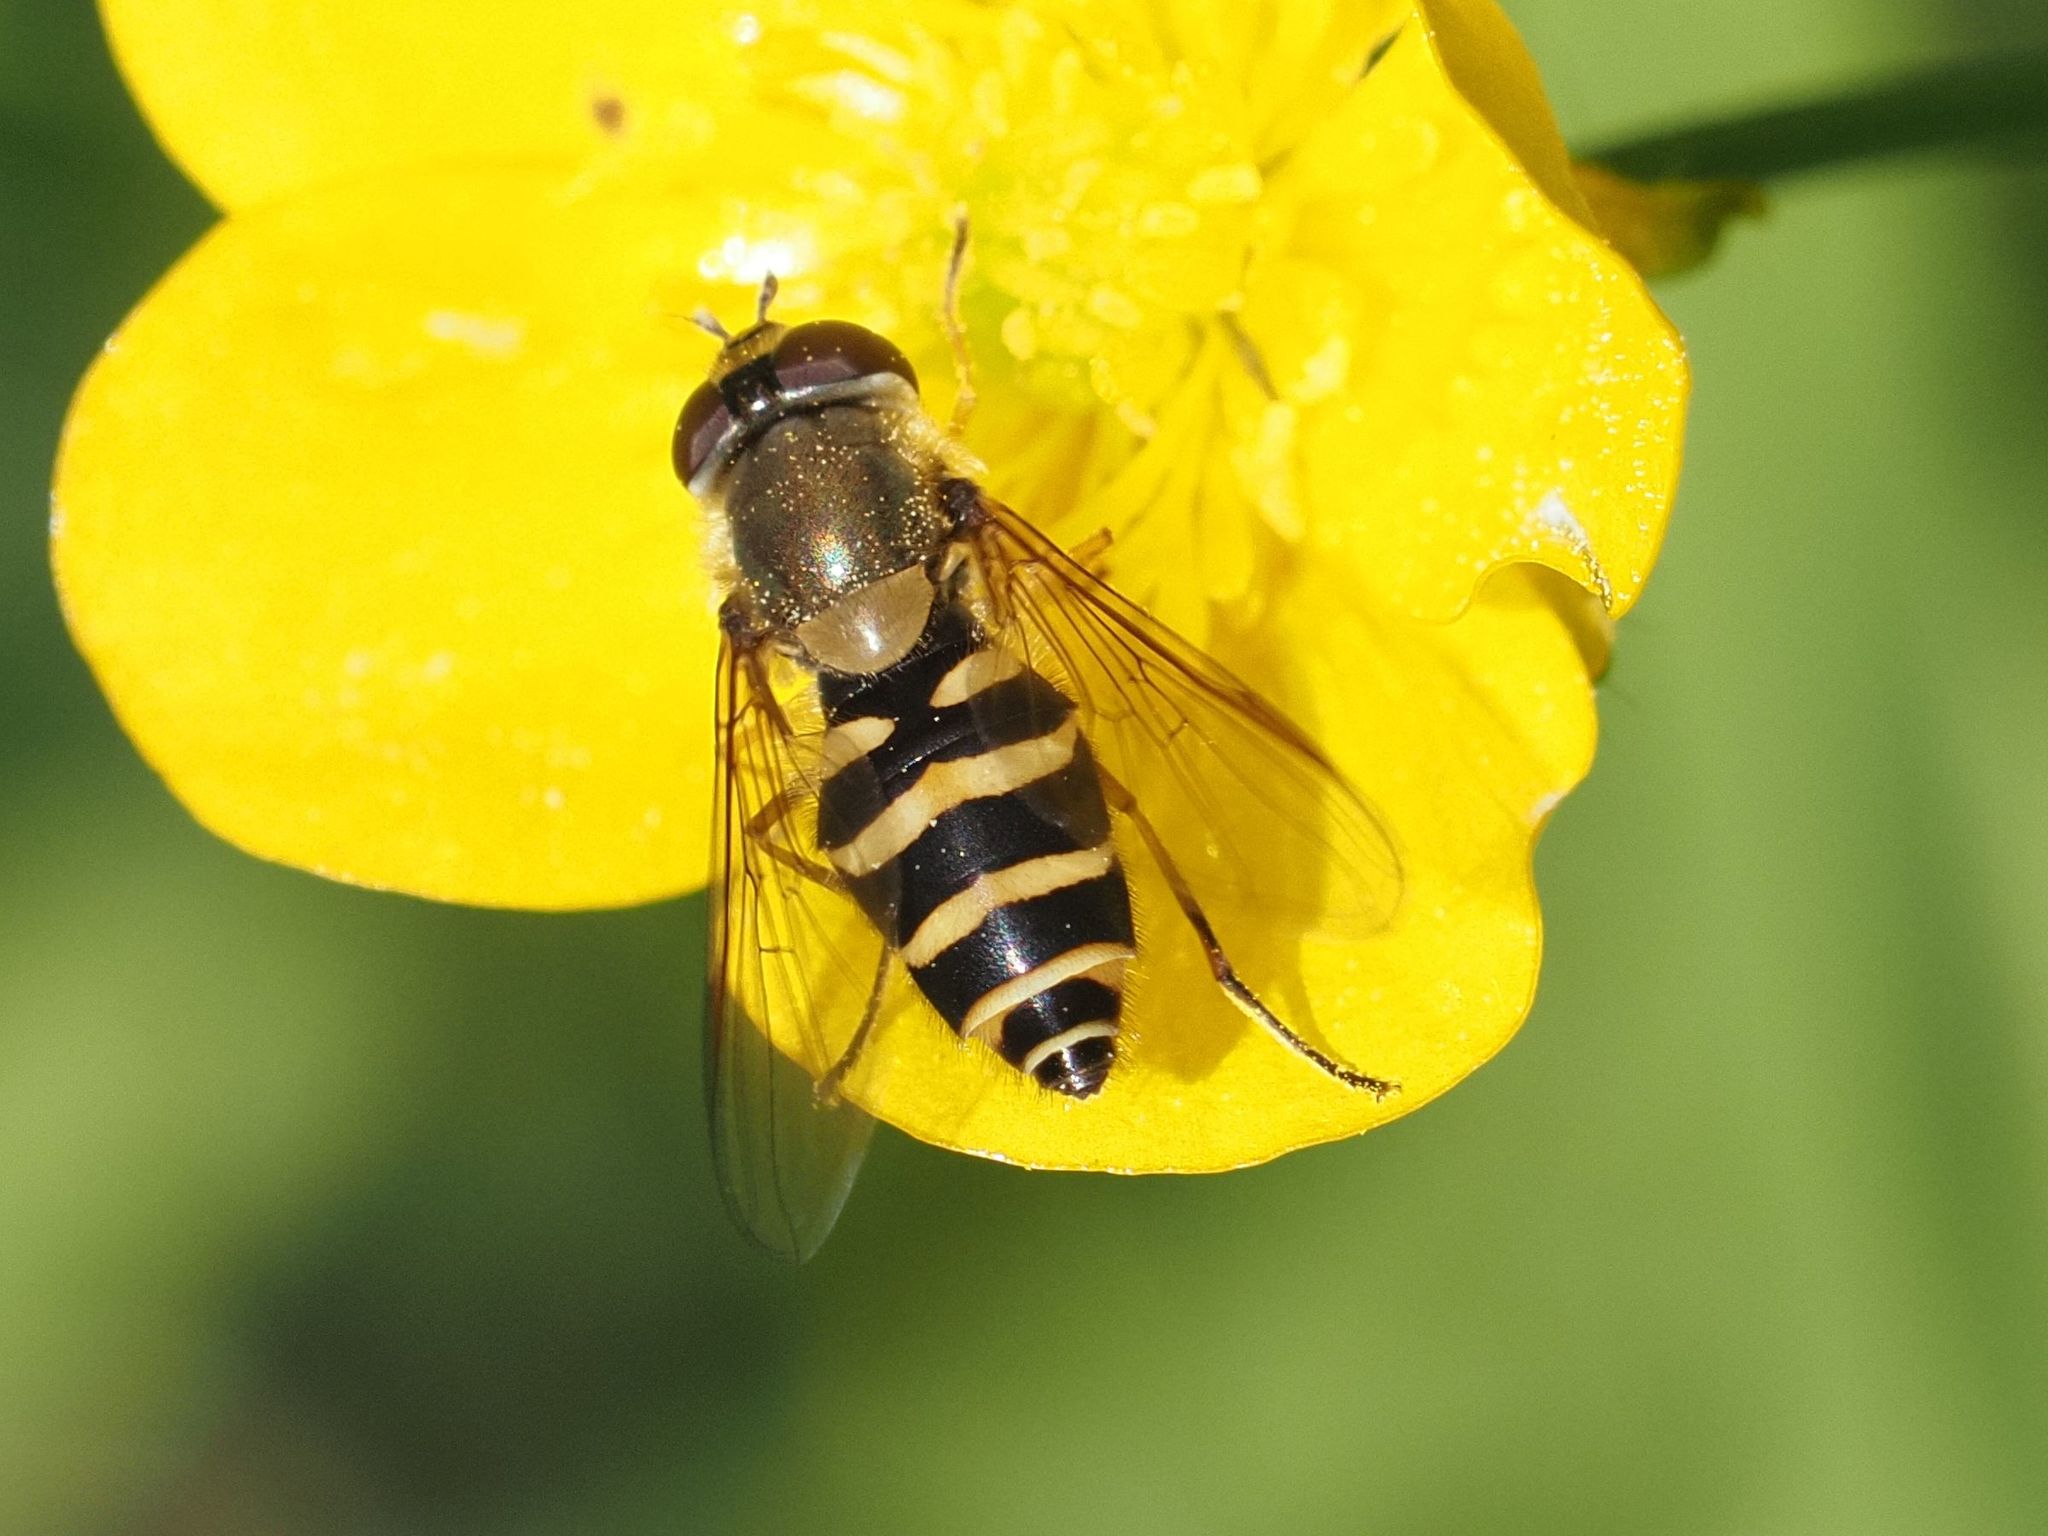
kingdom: Animalia
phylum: Arthropoda
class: Insecta
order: Diptera
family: Syrphidae
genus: Syrphus
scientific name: Syrphus
